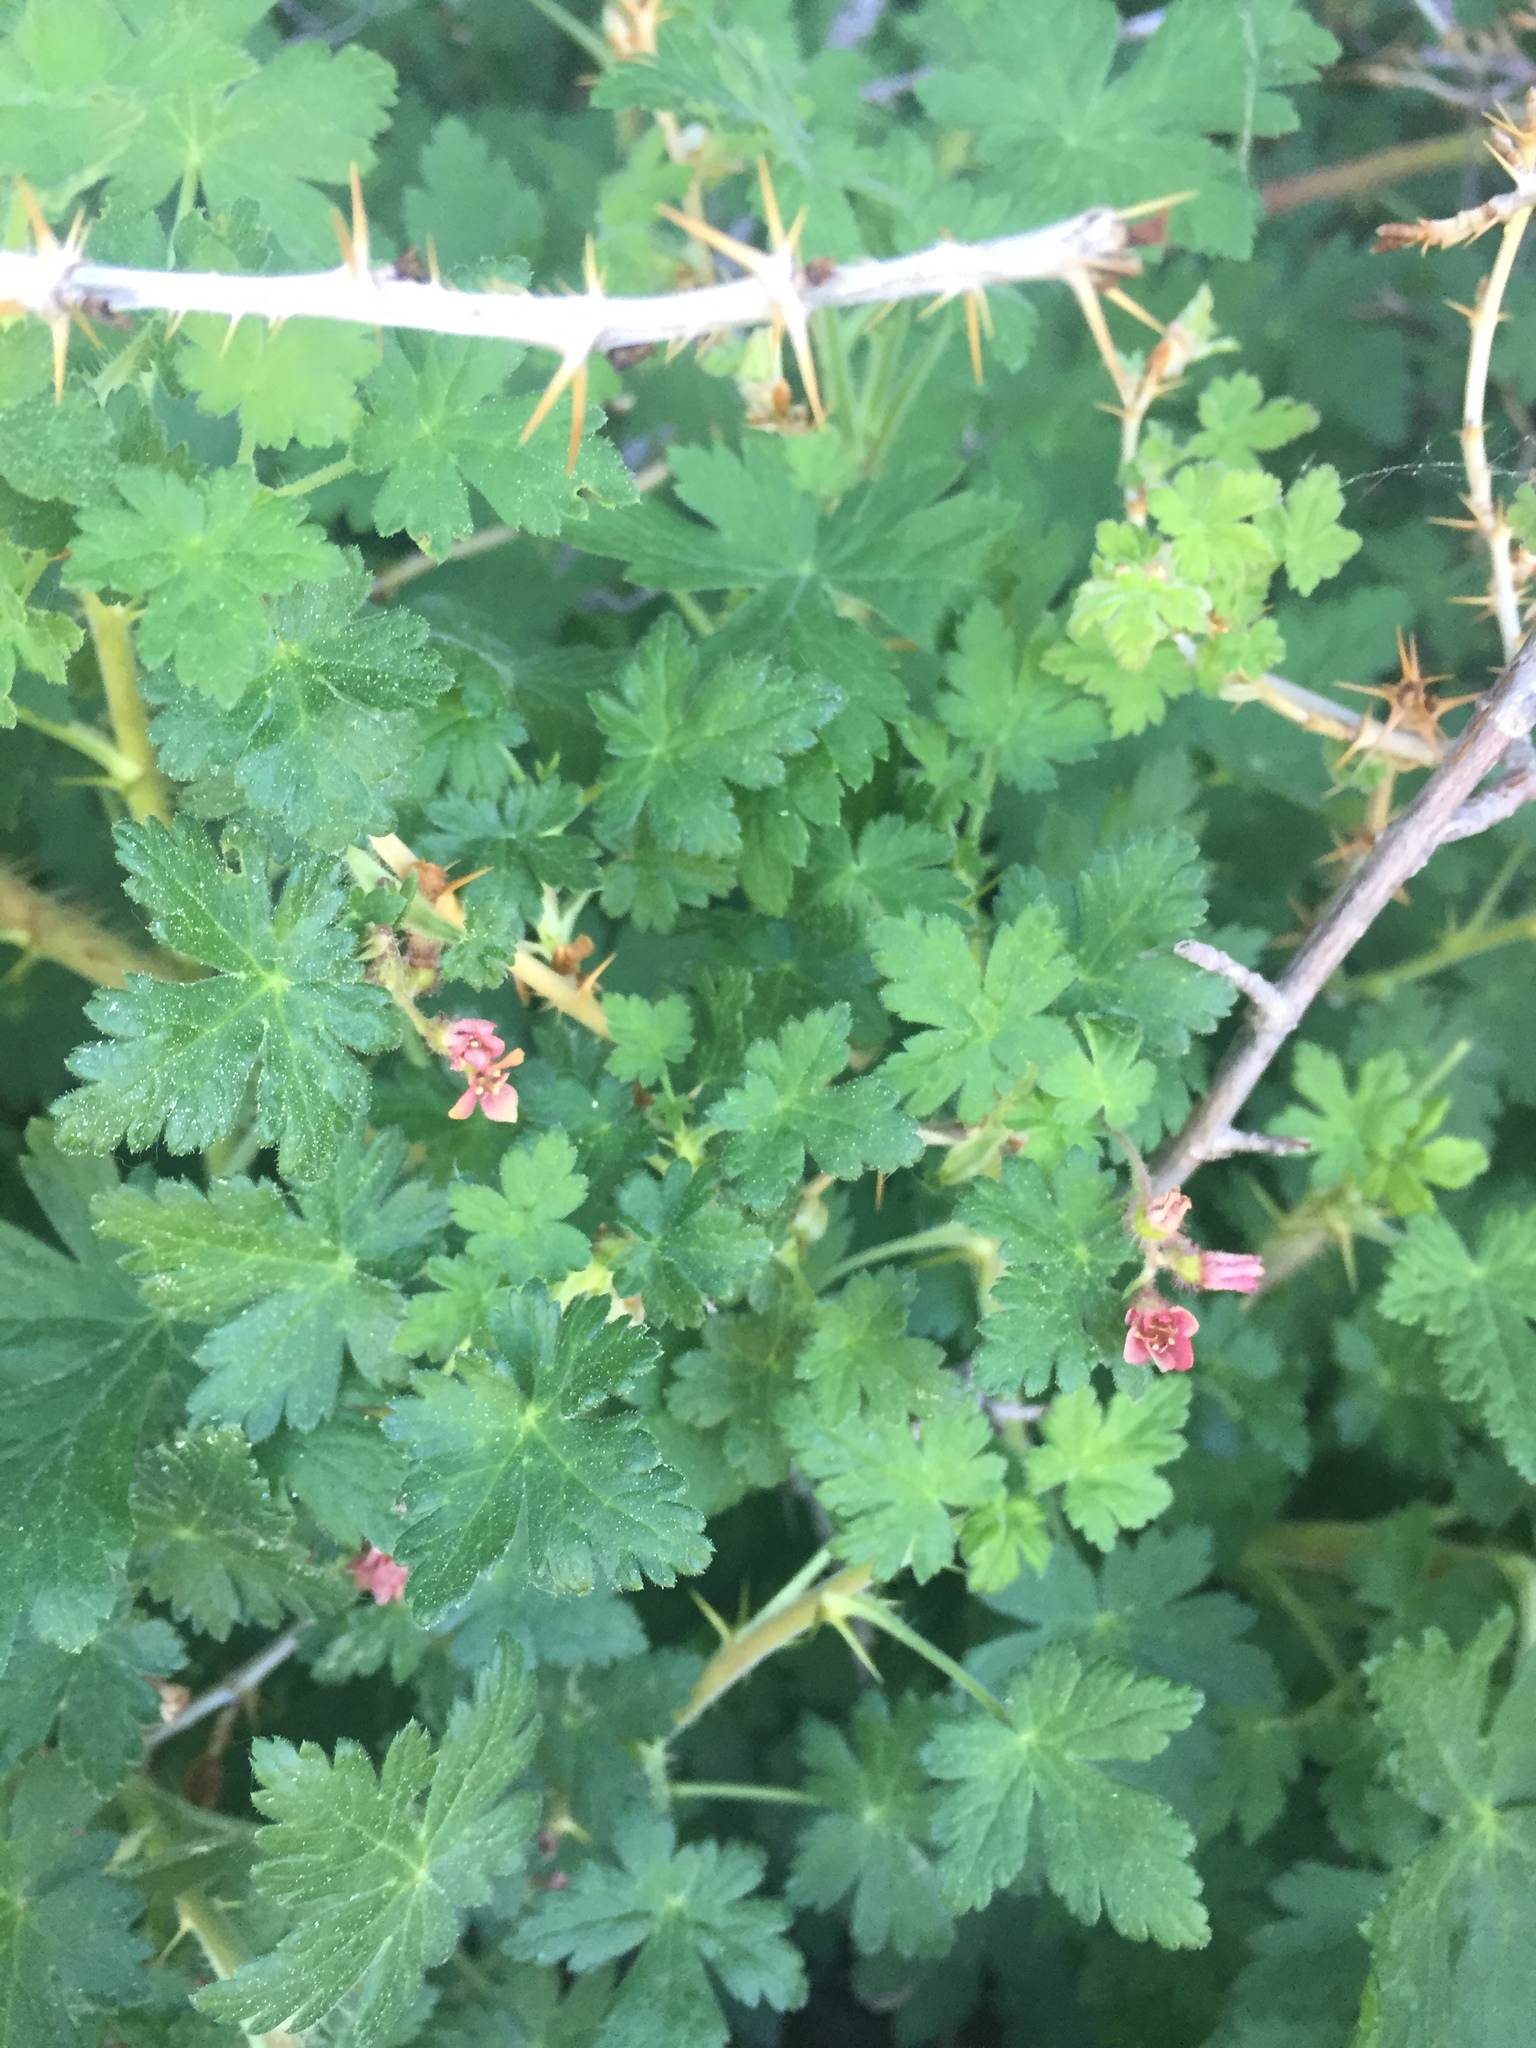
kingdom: Plantae
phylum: Tracheophyta
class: Magnoliopsida
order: Saxifragales
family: Grossulariaceae
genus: Ribes
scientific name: Ribes montigenum
